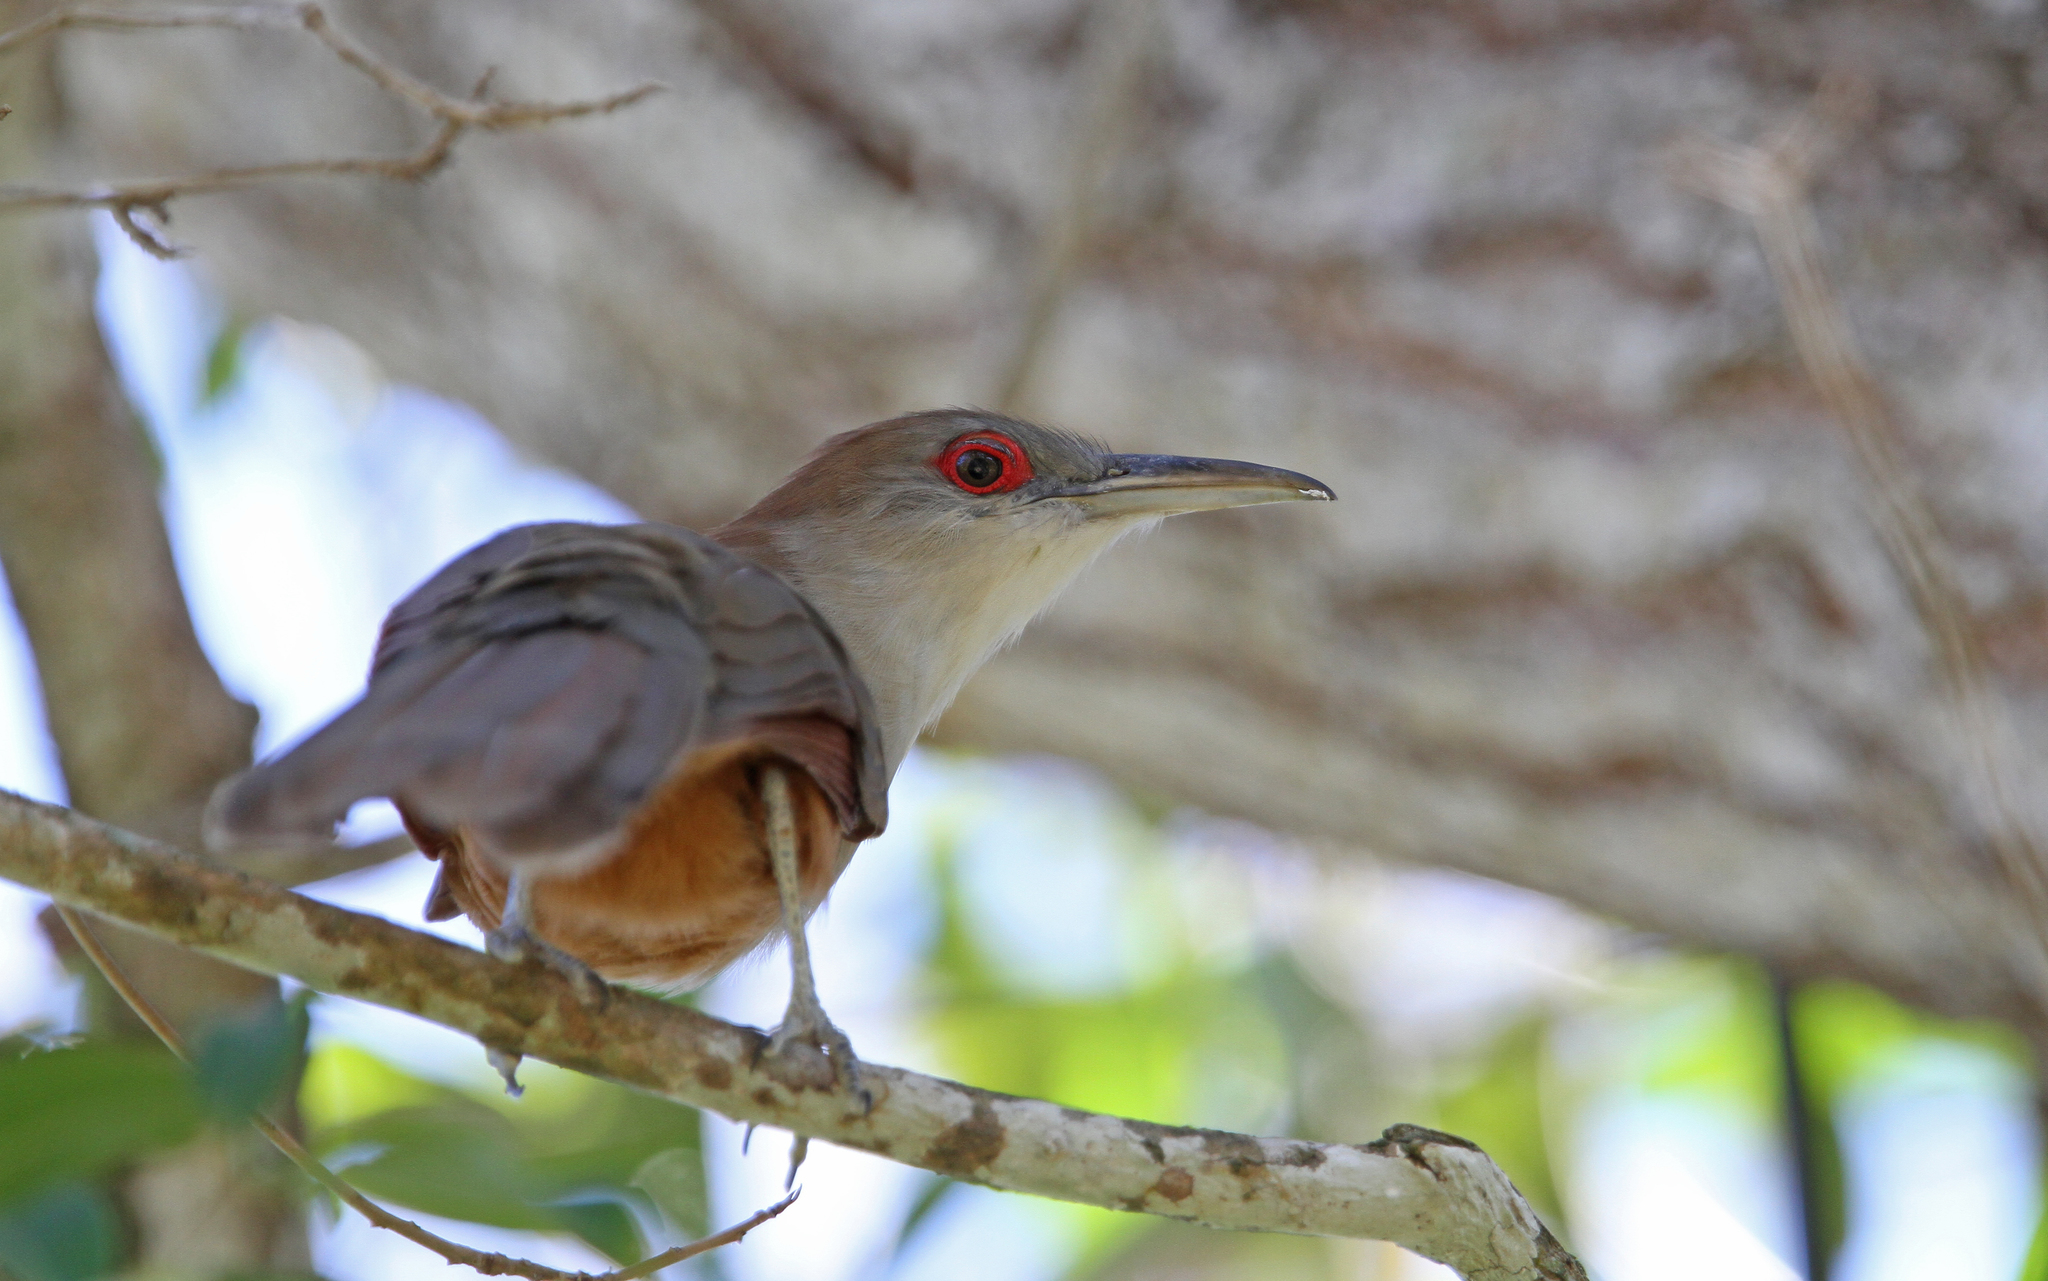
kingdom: Animalia
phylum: Chordata
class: Aves
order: Cuculiformes
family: Cuculidae
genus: Saurothera
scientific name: Saurothera merlini
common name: Great lizard-cuckoo
